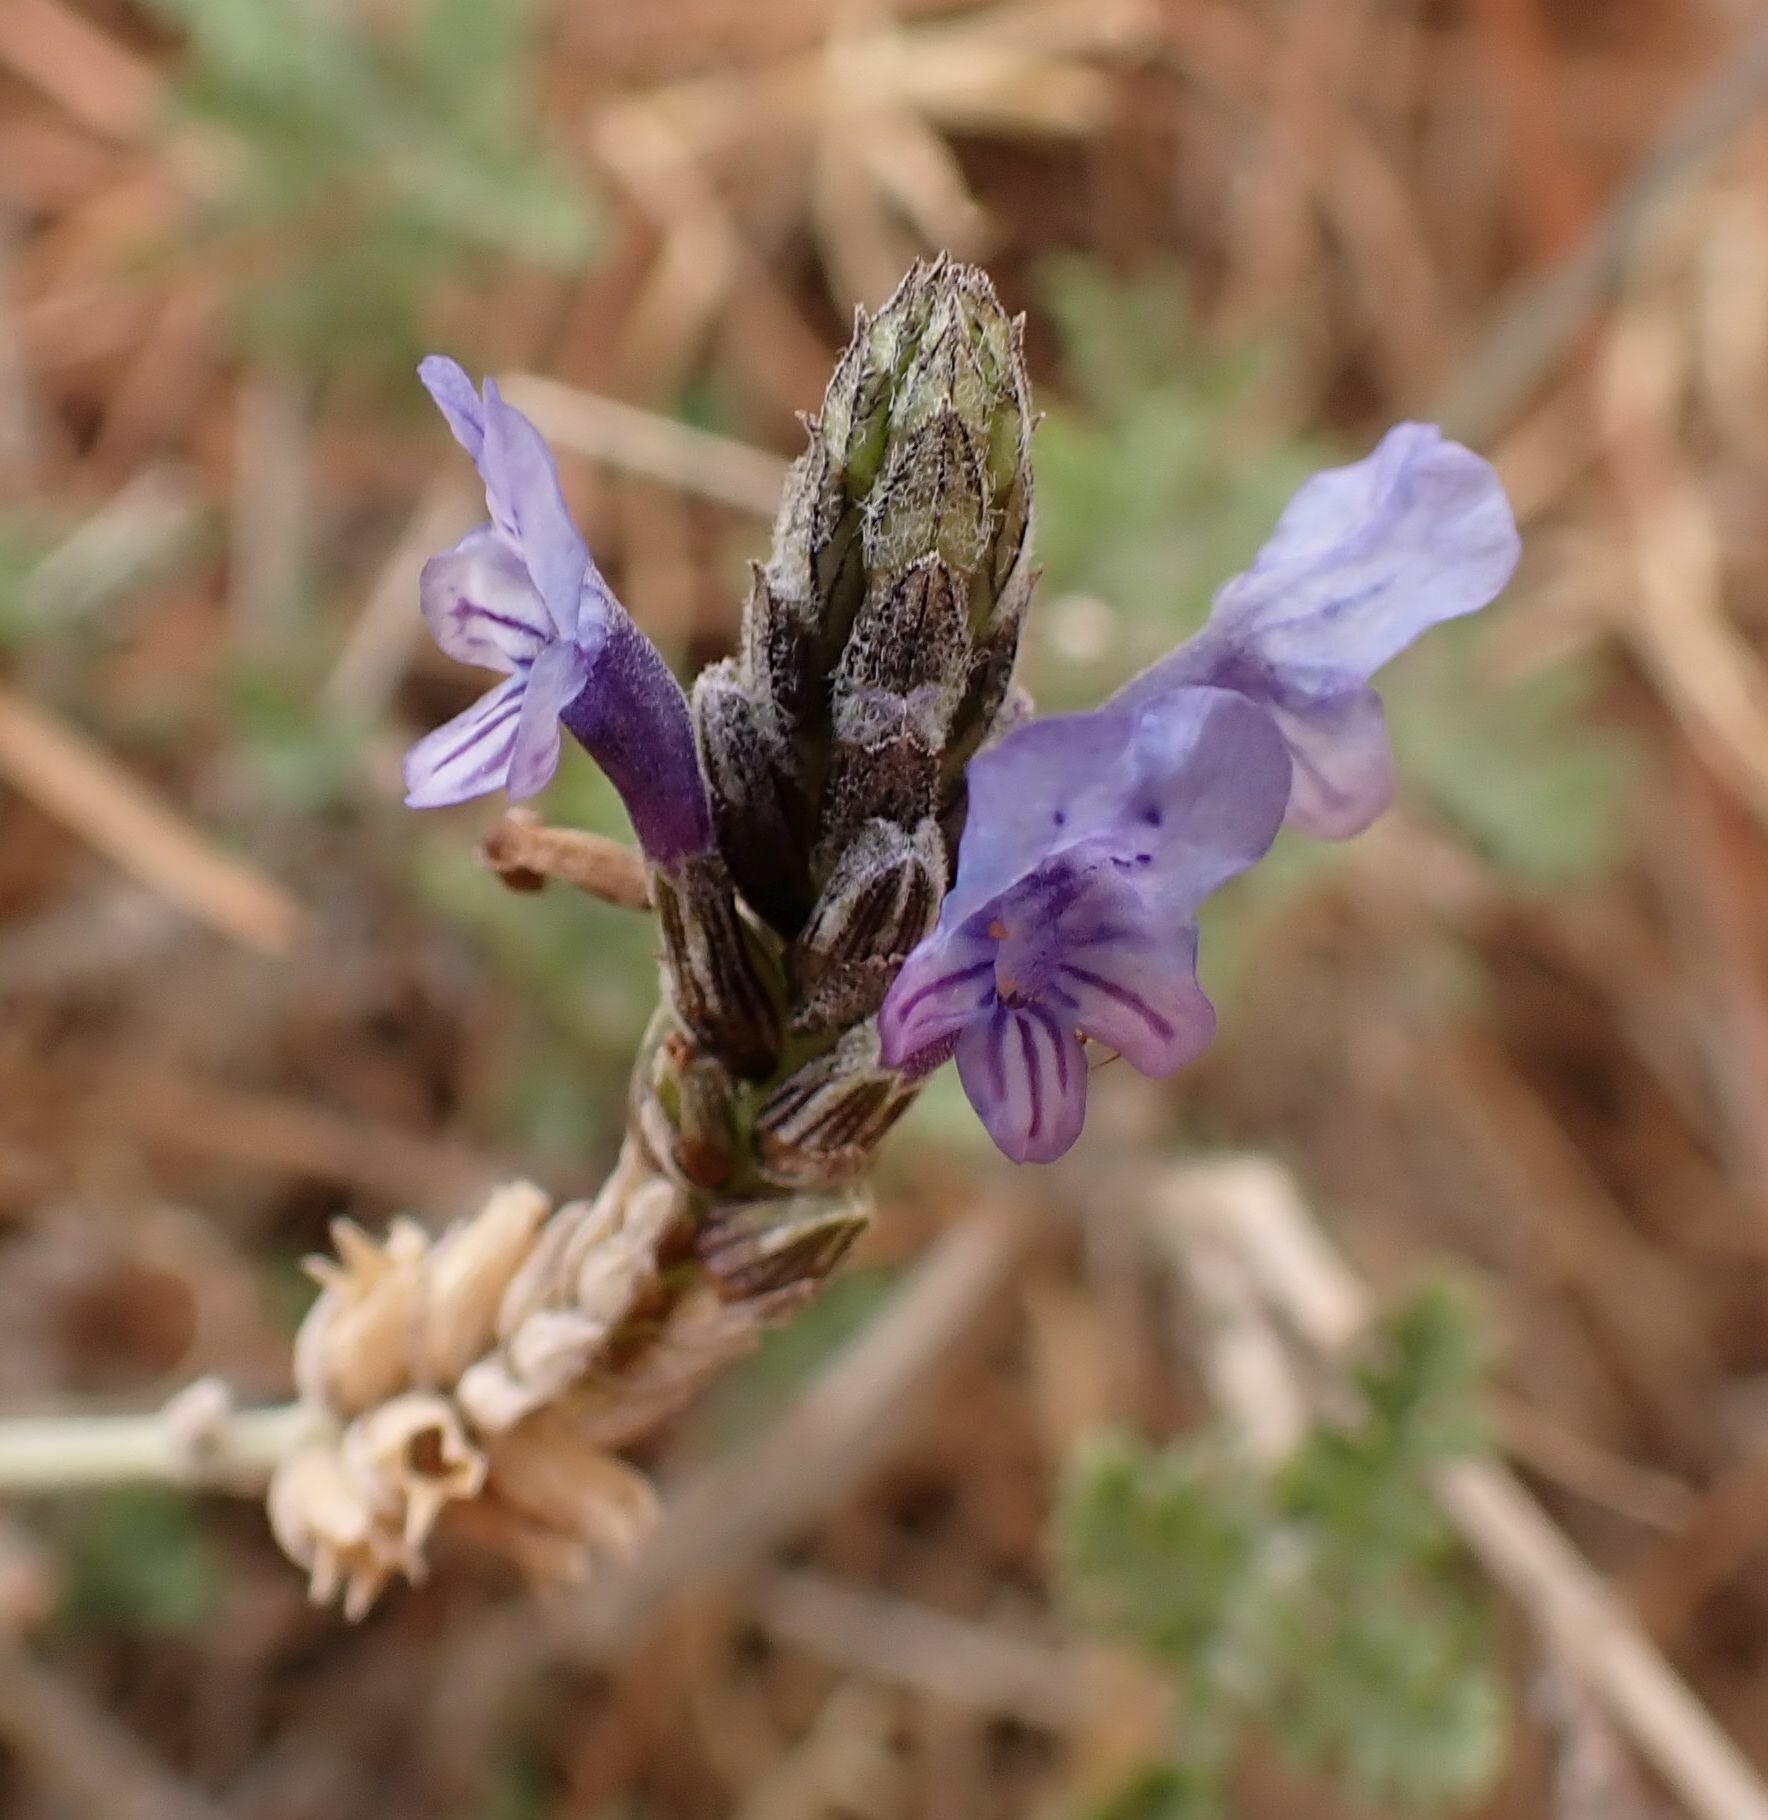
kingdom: Plantae
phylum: Tracheophyta
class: Magnoliopsida
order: Lamiales
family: Lamiaceae
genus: Lavandula
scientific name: Lavandula multifida
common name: Fern-leaf lavender
